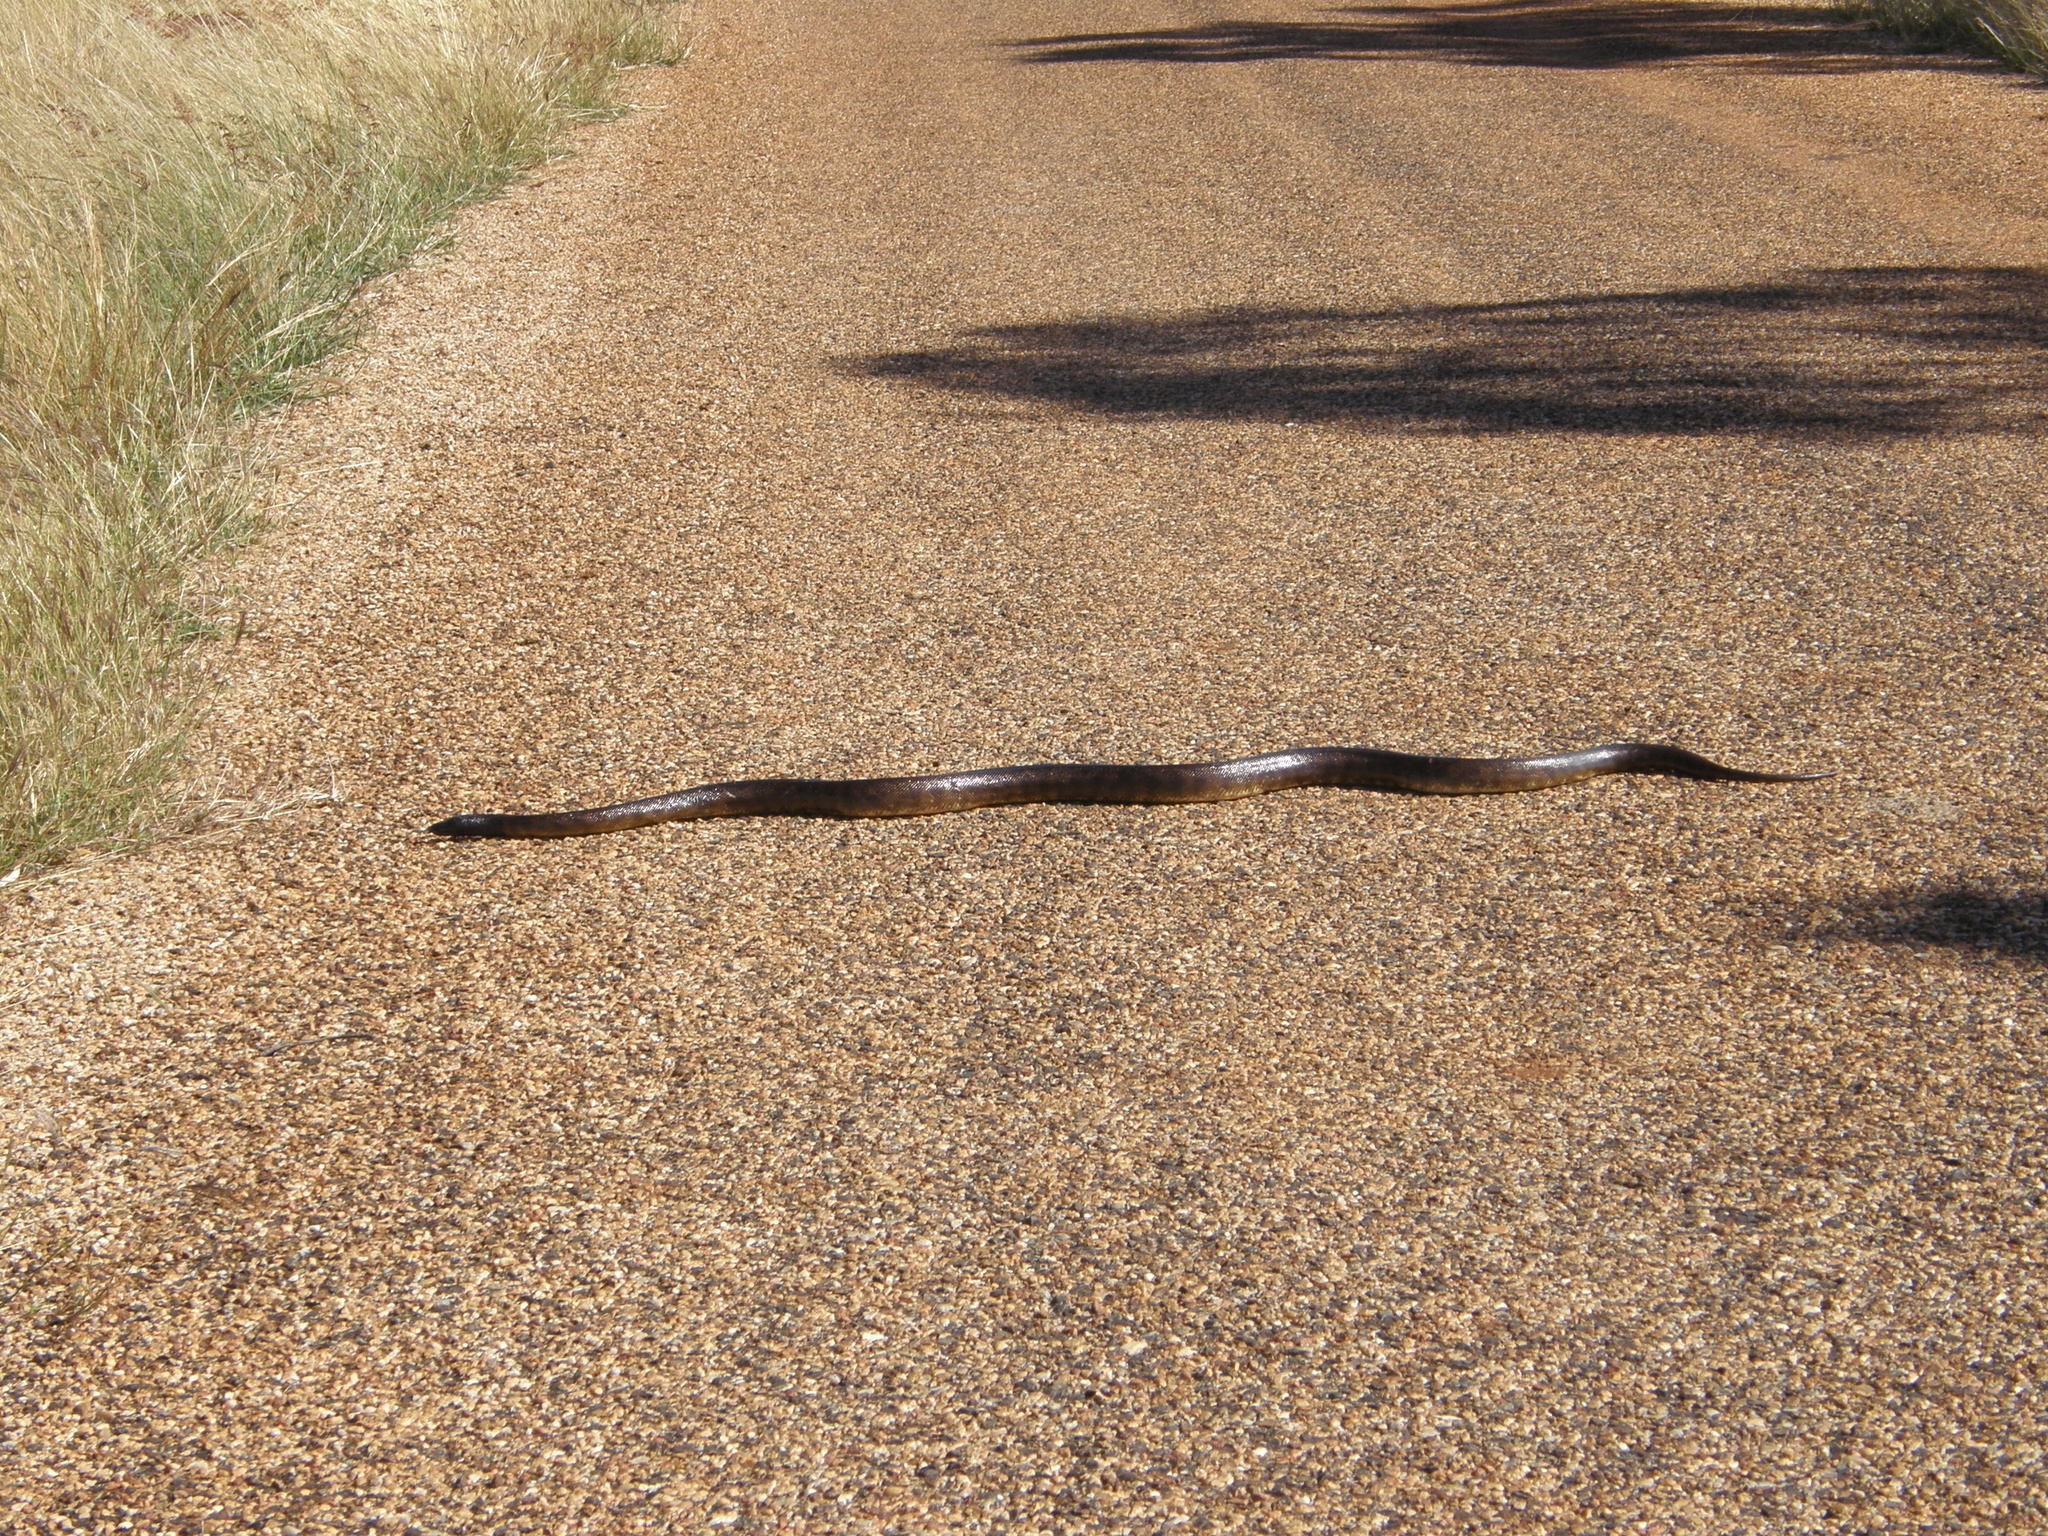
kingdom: Animalia
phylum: Chordata
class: Squamata
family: Pythonidae
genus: Aspidites
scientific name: Aspidites melanocephalus
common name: Black-headed python
